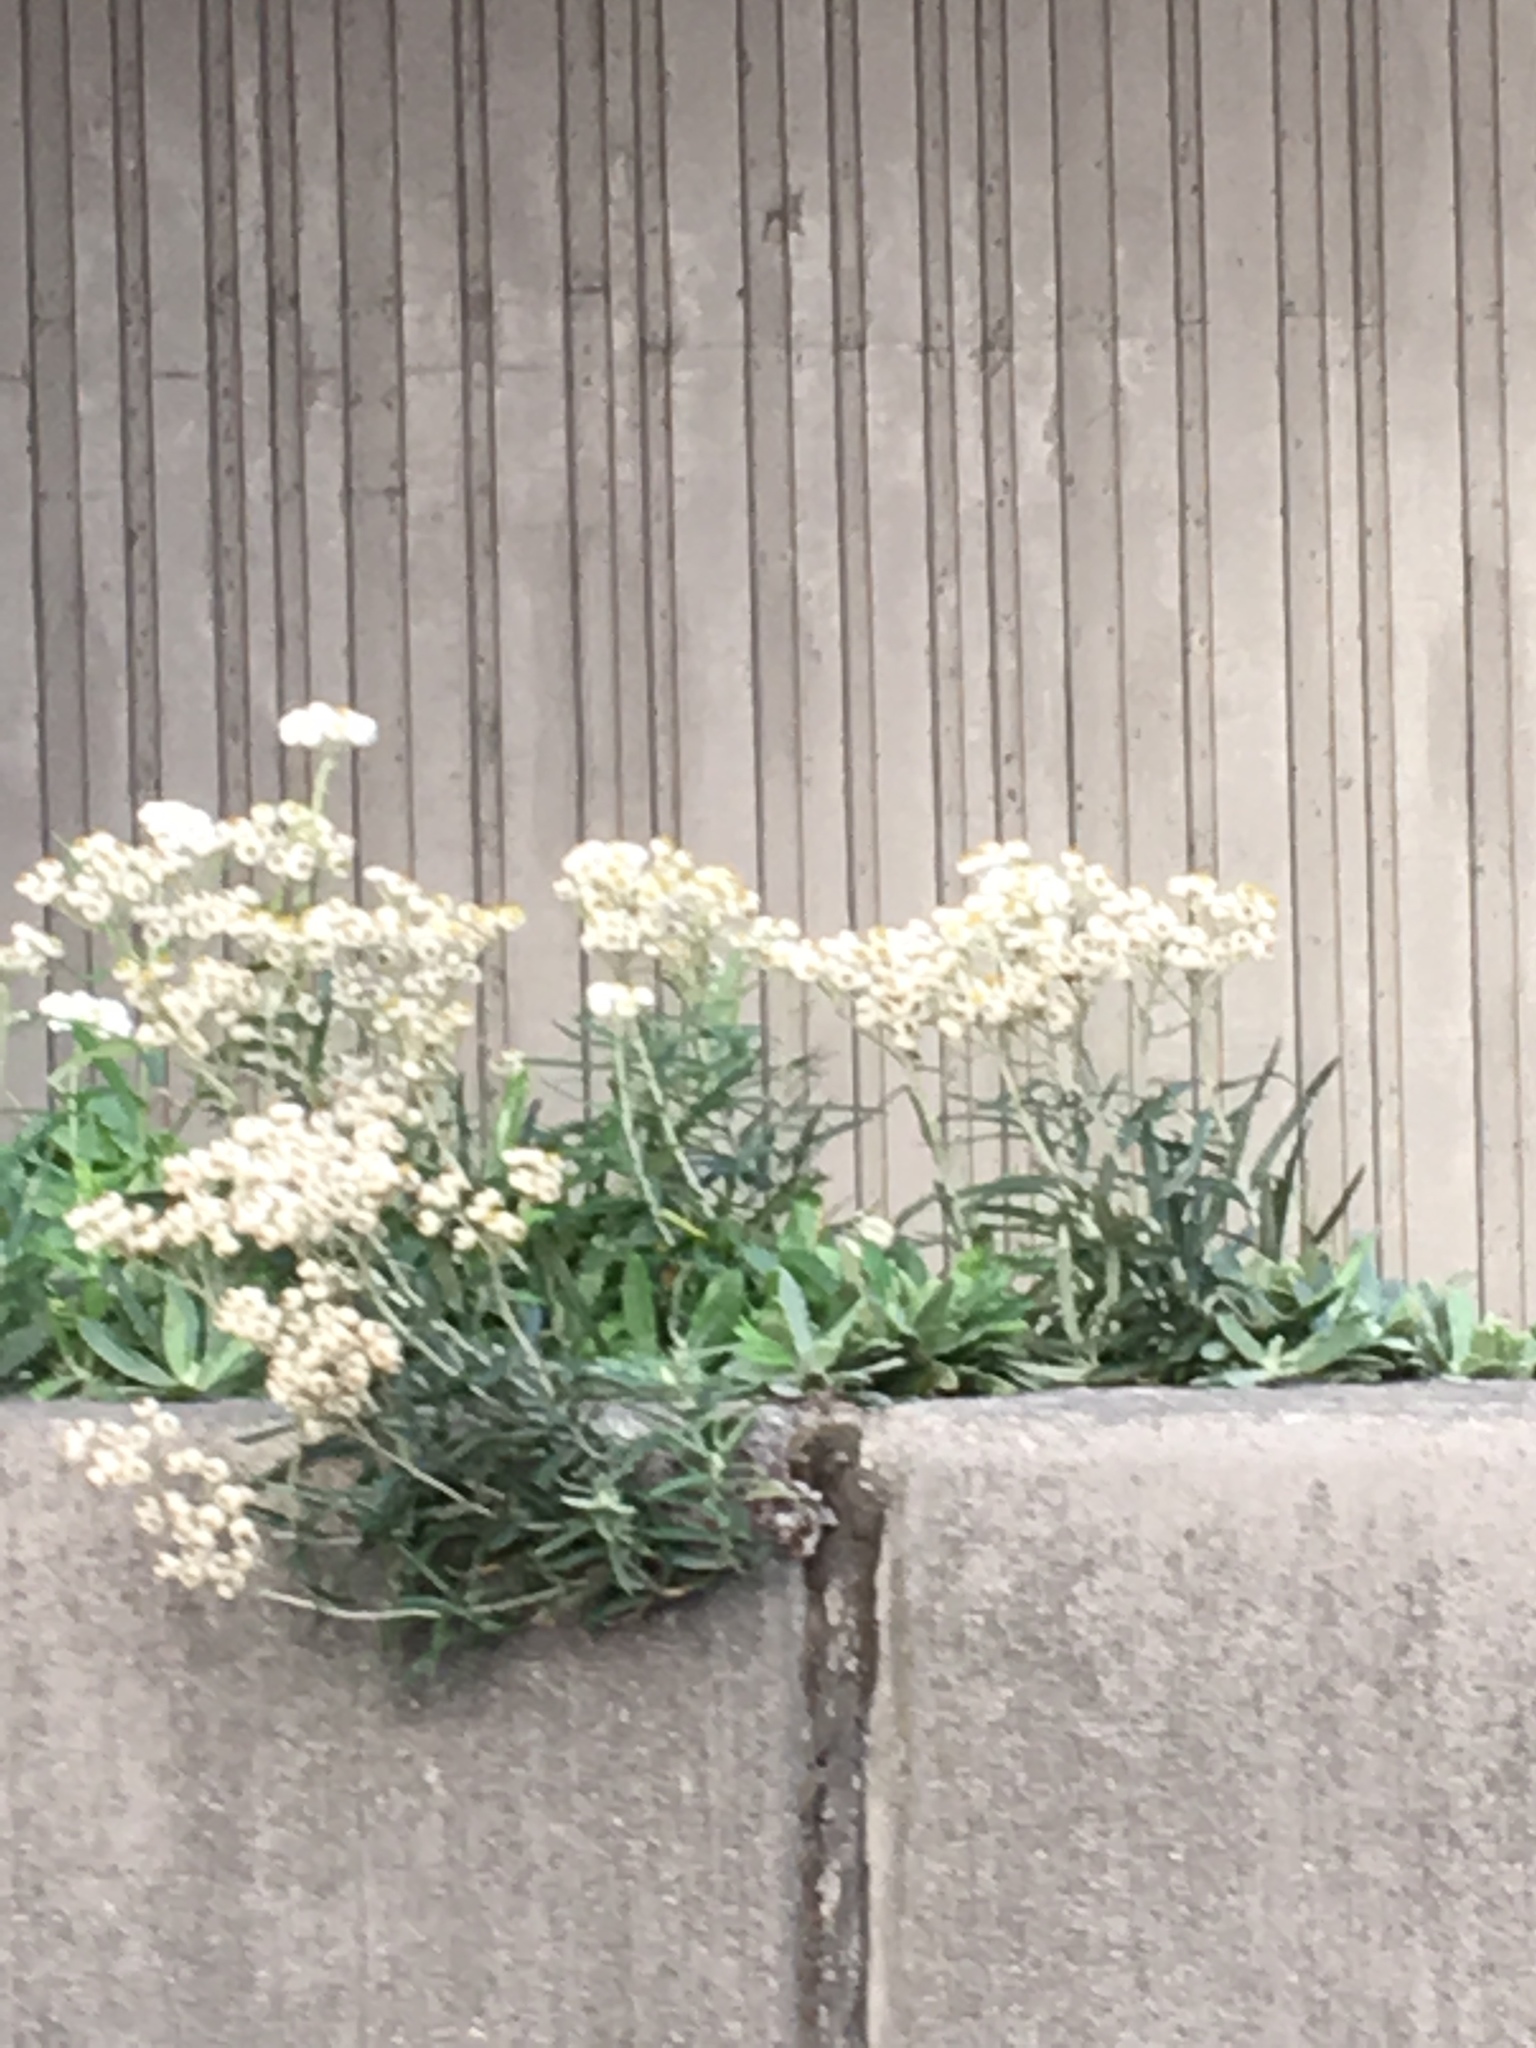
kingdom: Plantae
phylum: Tracheophyta
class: Magnoliopsida
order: Asterales
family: Asteraceae
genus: Anaphalis
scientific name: Anaphalis margaritacea
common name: Pearly everlasting
